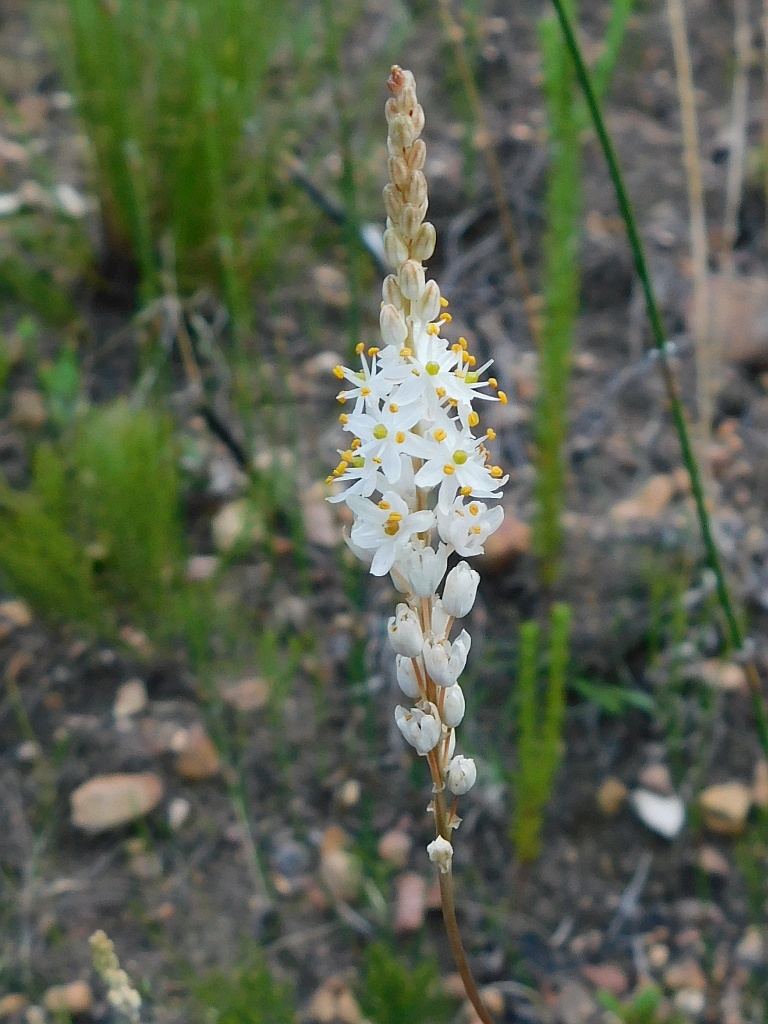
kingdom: Plantae
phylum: Tracheophyta
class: Liliopsida
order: Asparagales
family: Asphodelaceae
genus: Bulbinella
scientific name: Bulbinella trinervis
